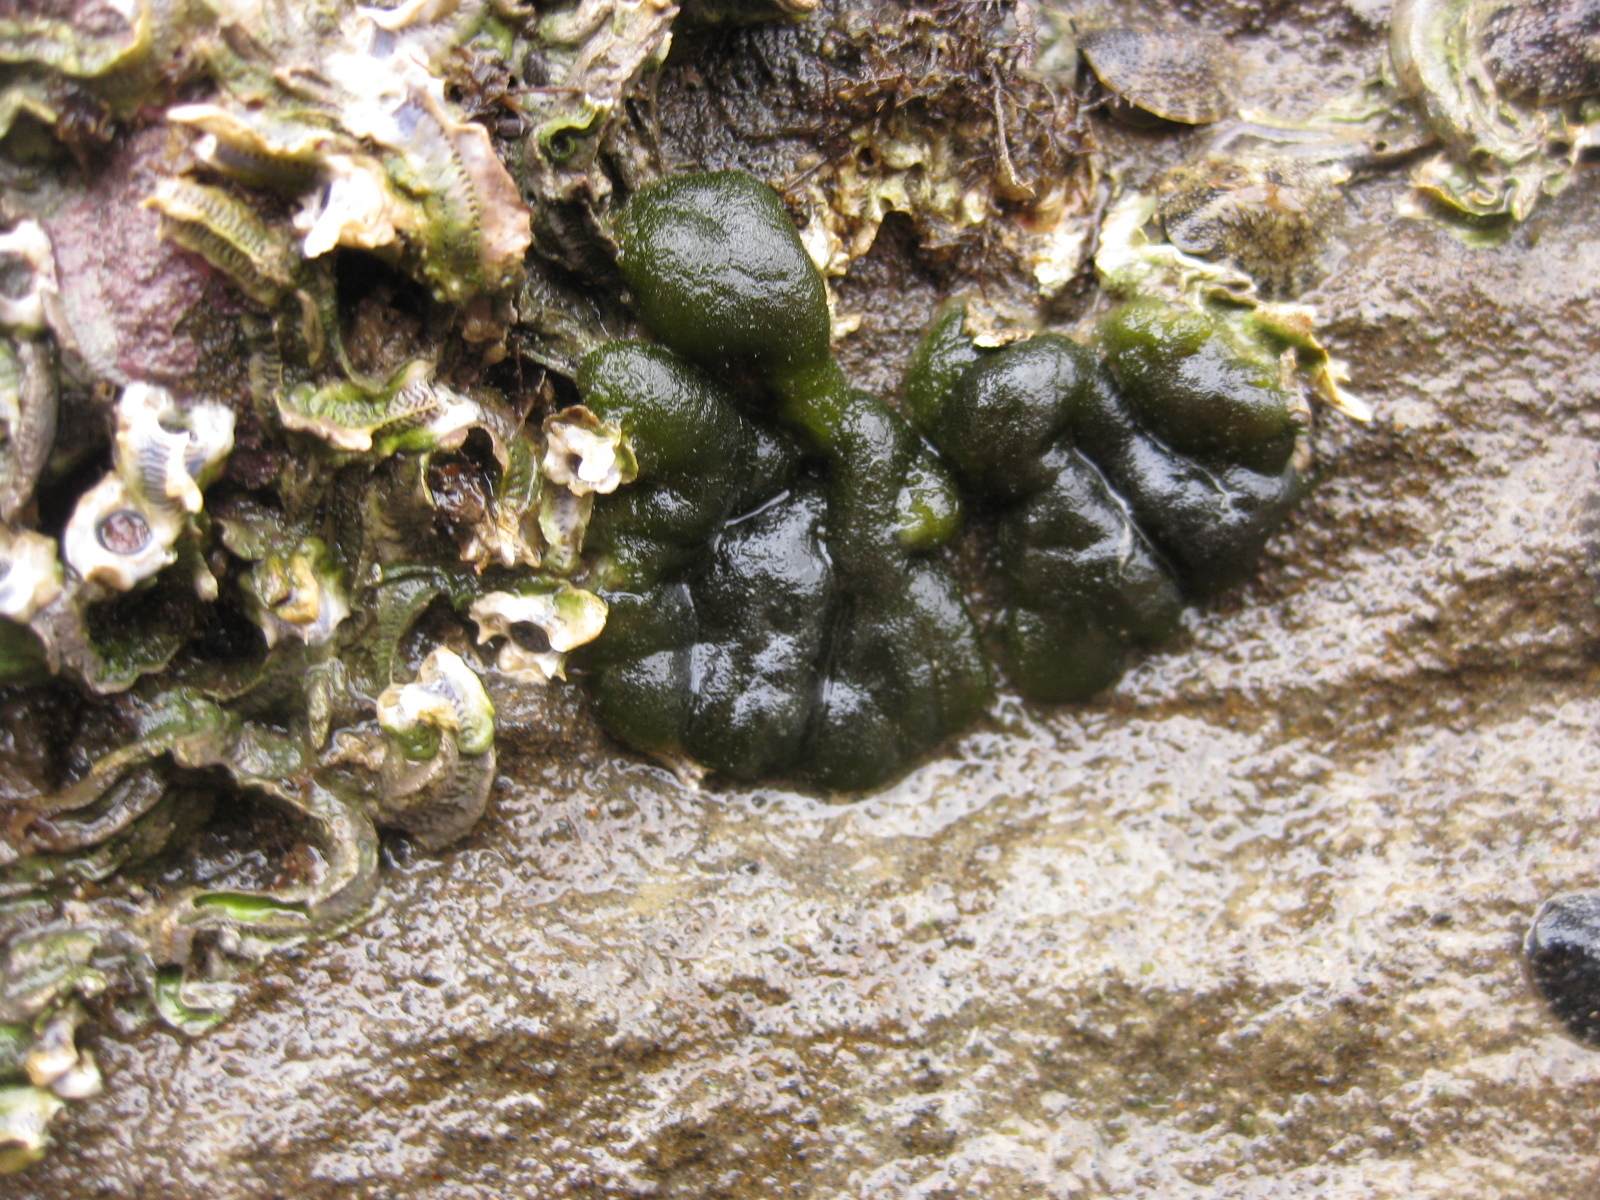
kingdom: Plantae
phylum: Chlorophyta
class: Ulvophyceae
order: Bryopsidales
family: Codiaceae
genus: Codium
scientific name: Codium convolutum
